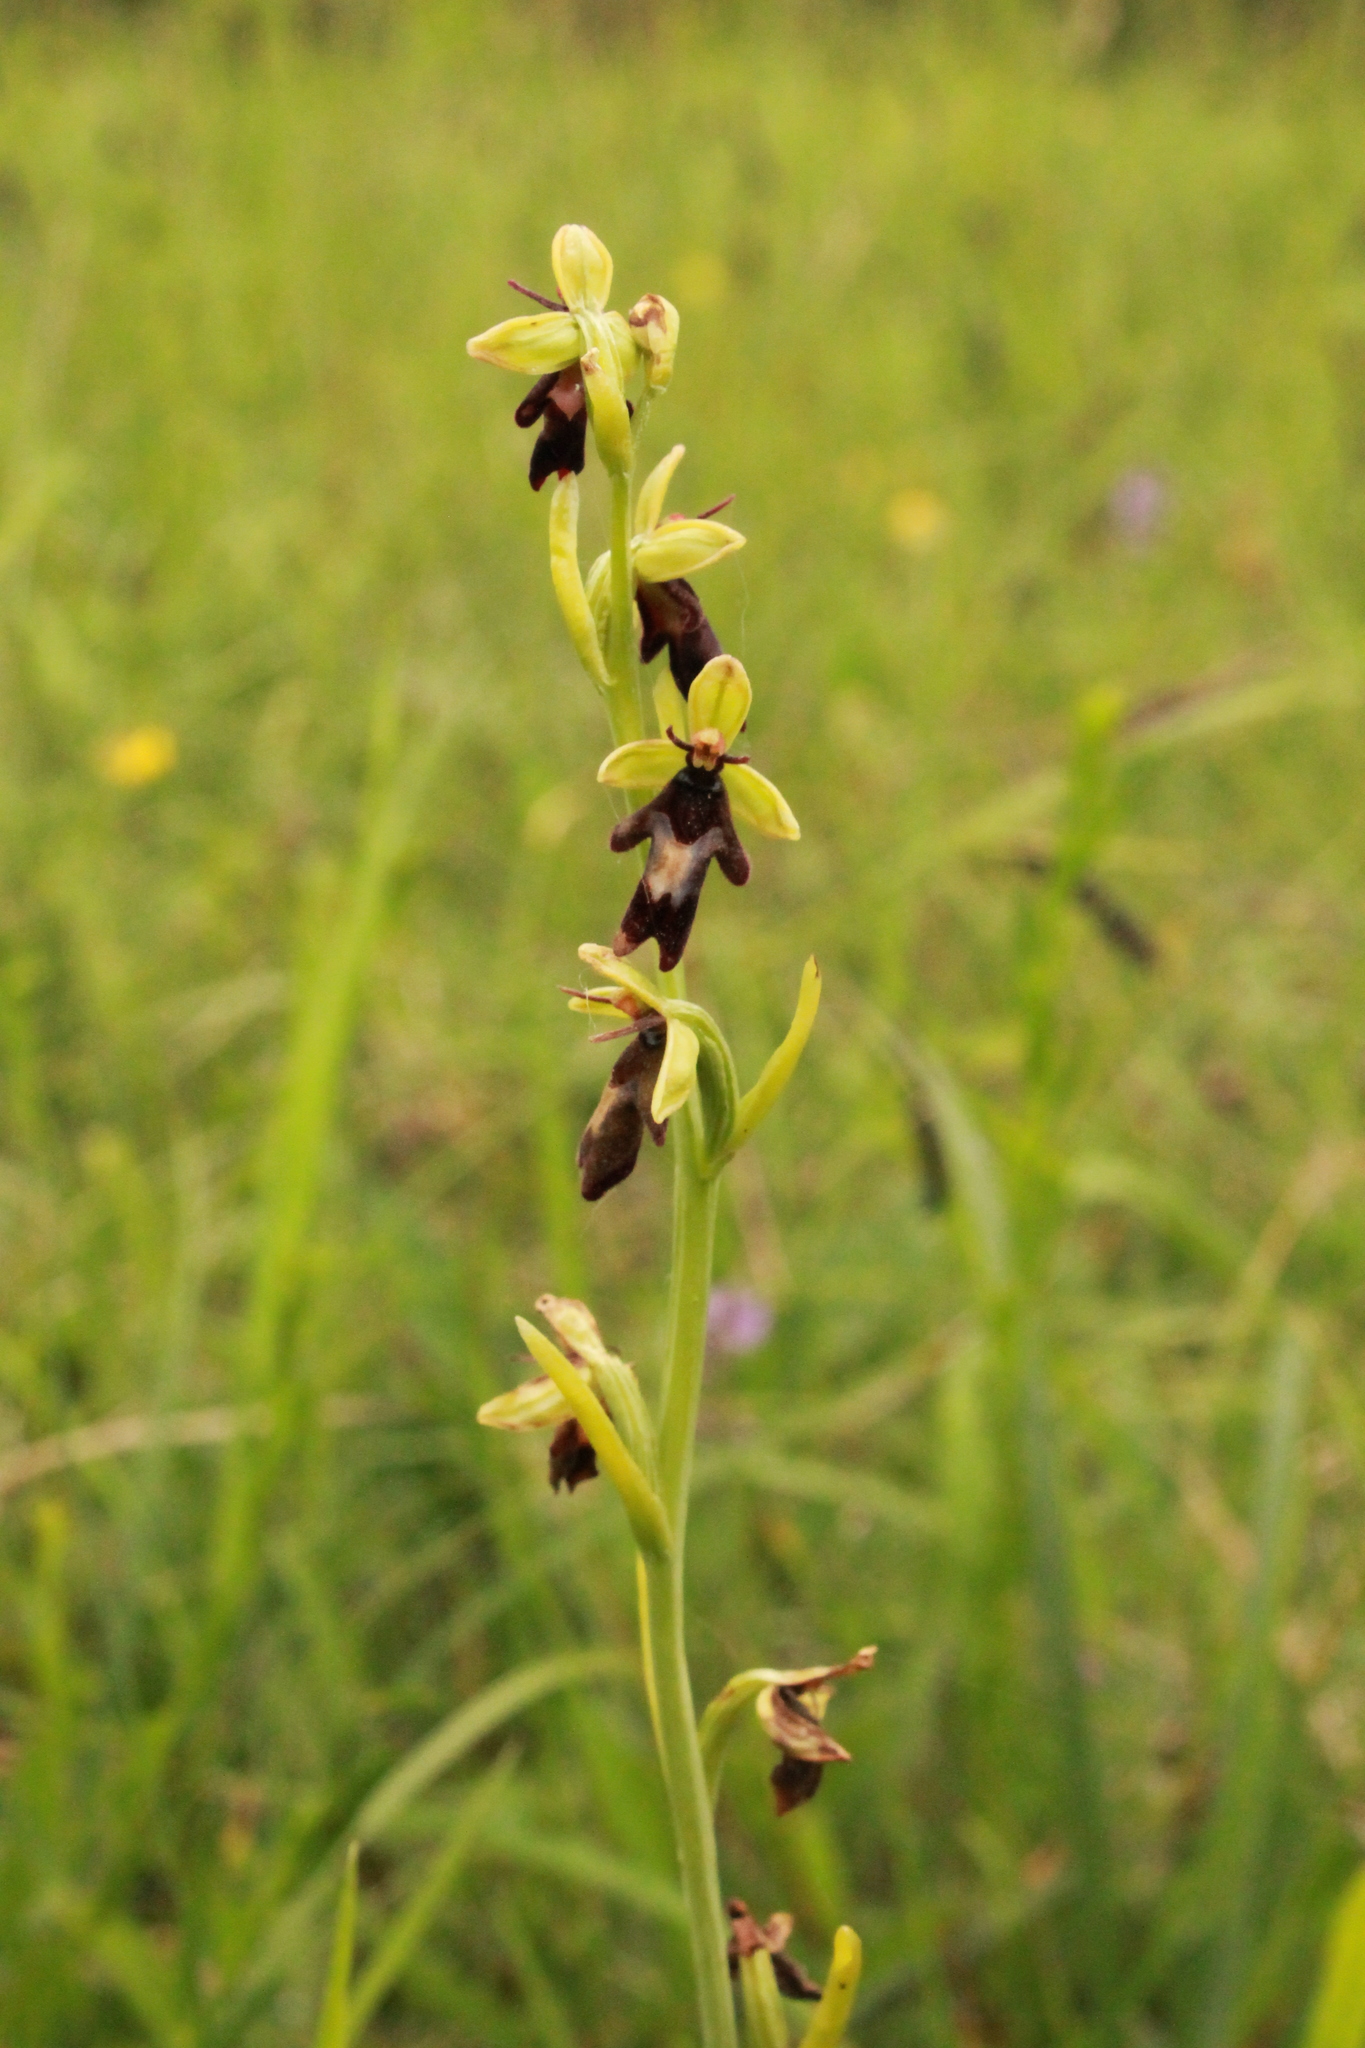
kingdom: Plantae
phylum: Tracheophyta
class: Liliopsida
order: Asparagales
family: Orchidaceae
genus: Ophrys
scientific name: Ophrys insectifera
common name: Fly orchid
